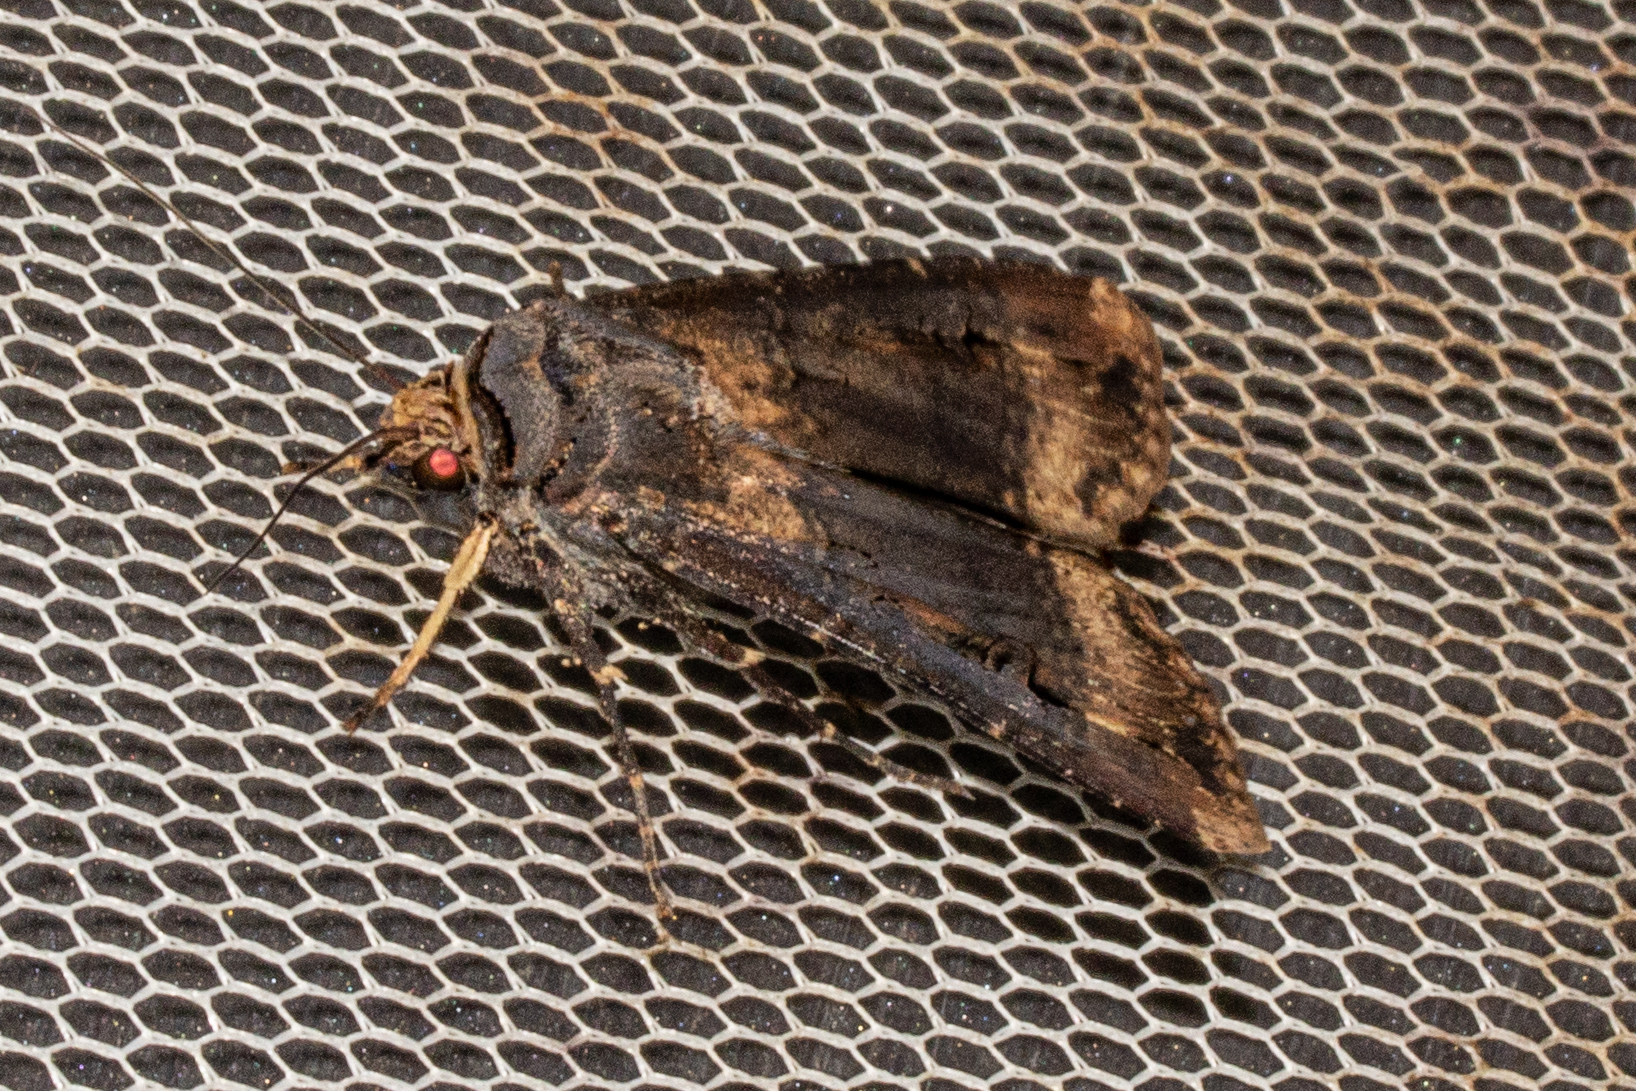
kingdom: Animalia
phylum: Arthropoda
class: Insecta
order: Lepidoptera
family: Noctuidae
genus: Agrotis
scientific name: Agrotis ipsilon
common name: Dark sword-grass
